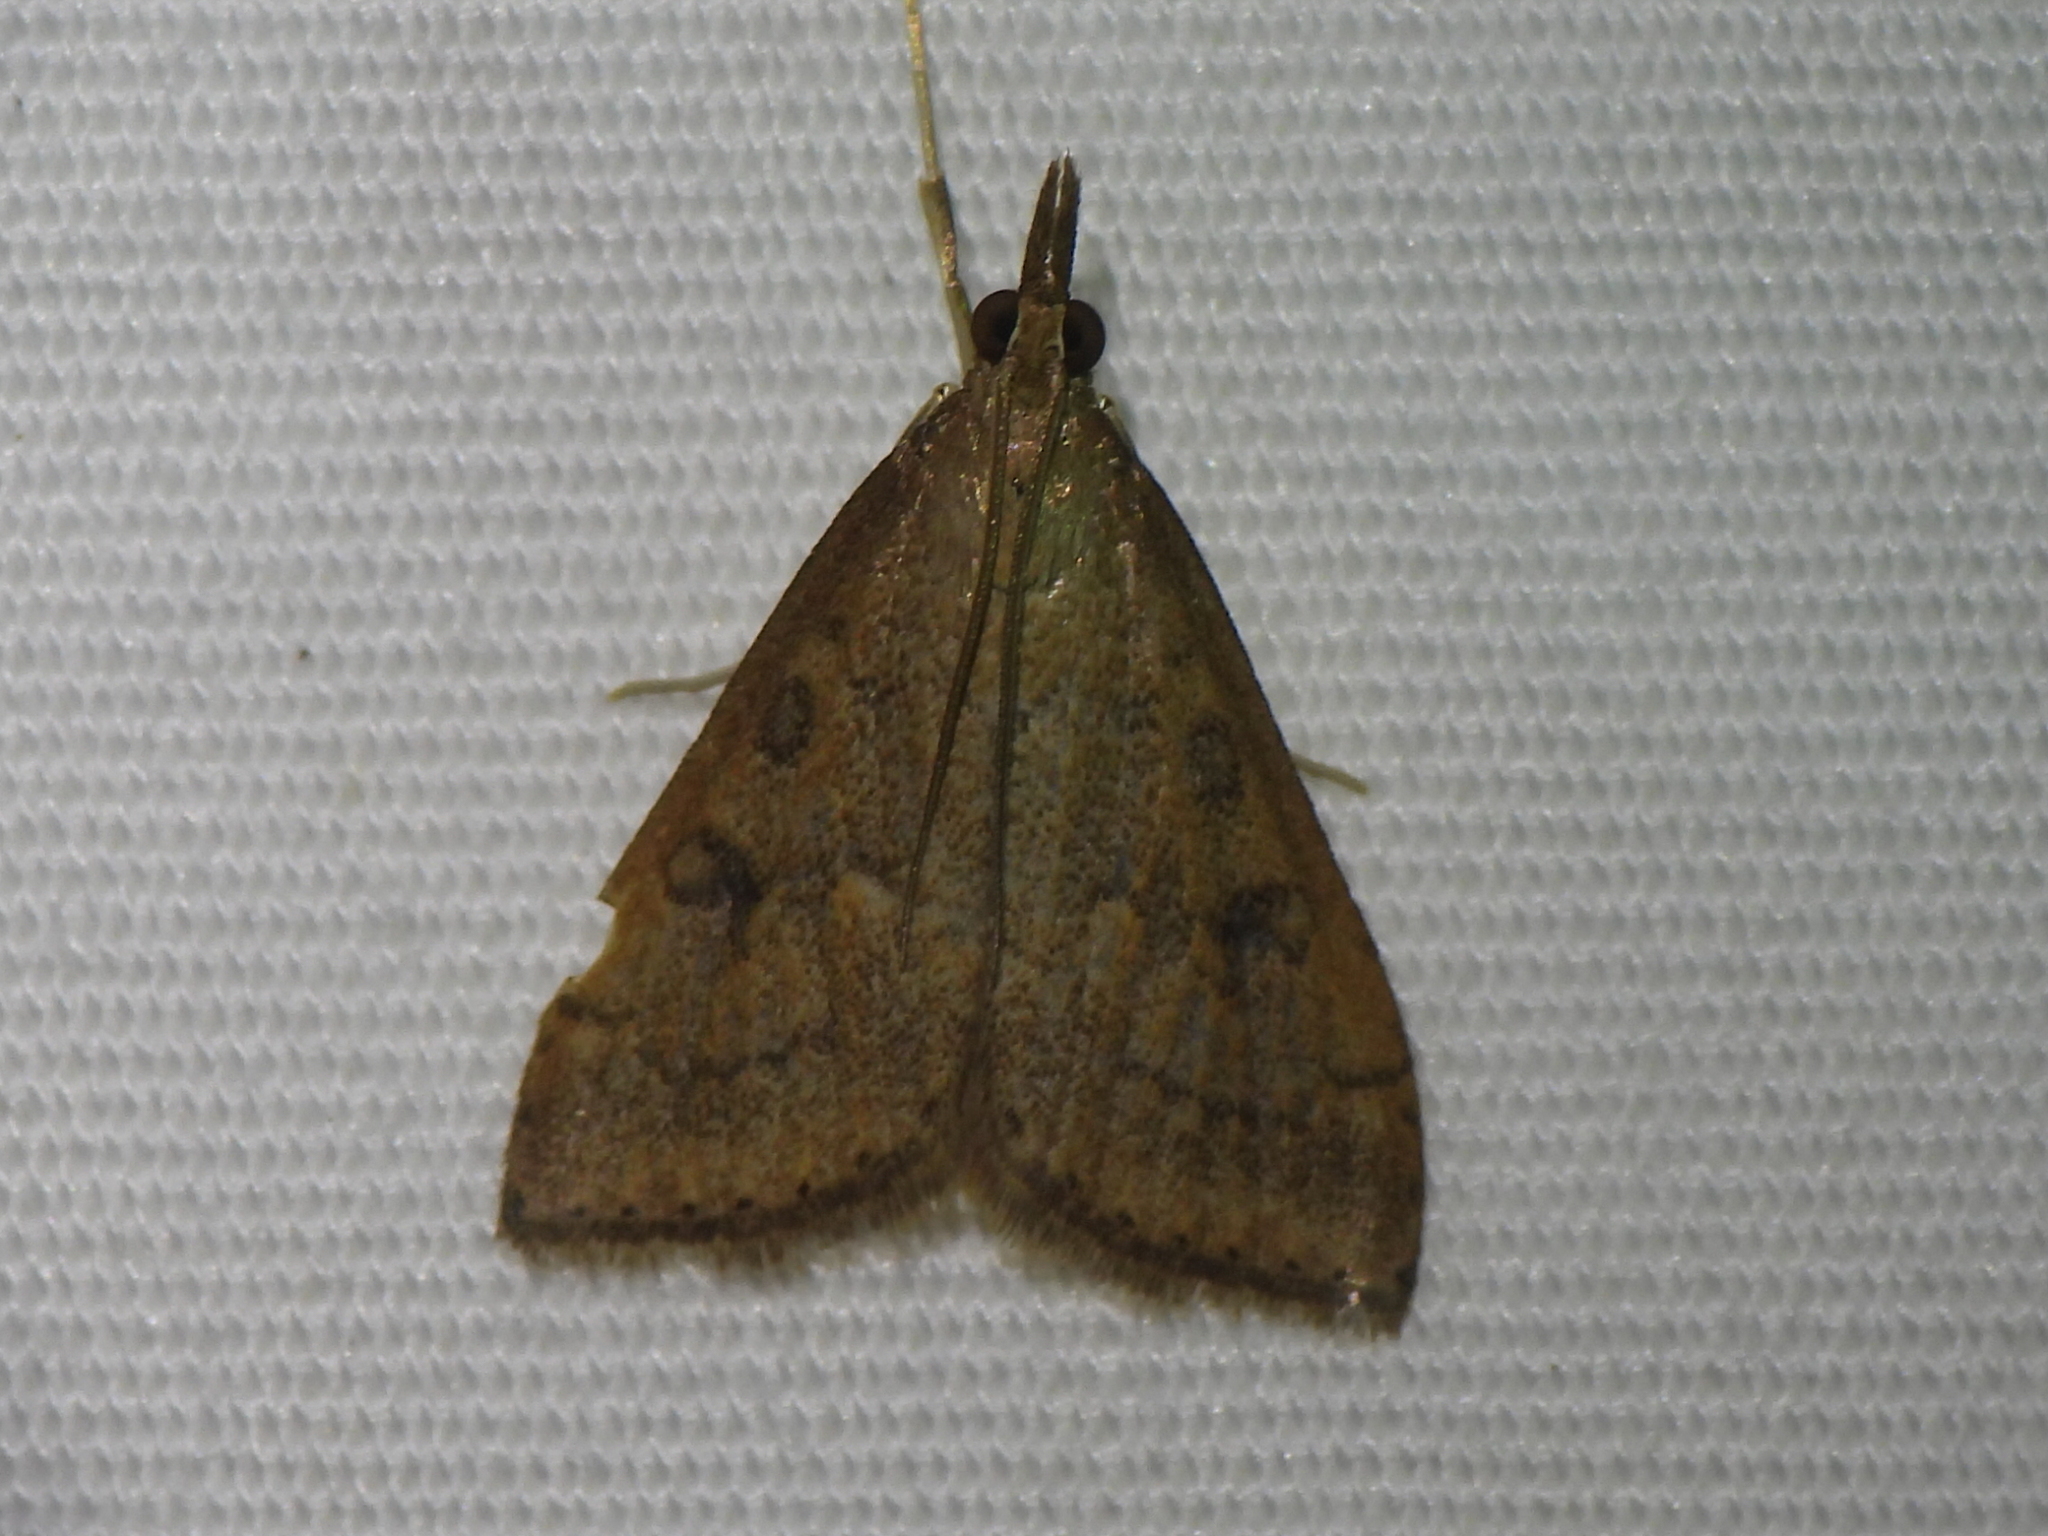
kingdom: Animalia
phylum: Arthropoda
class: Insecta
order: Lepidoptera
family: Crambidae
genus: Udea
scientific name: Udea rubigalis
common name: Celery leaftier moth
